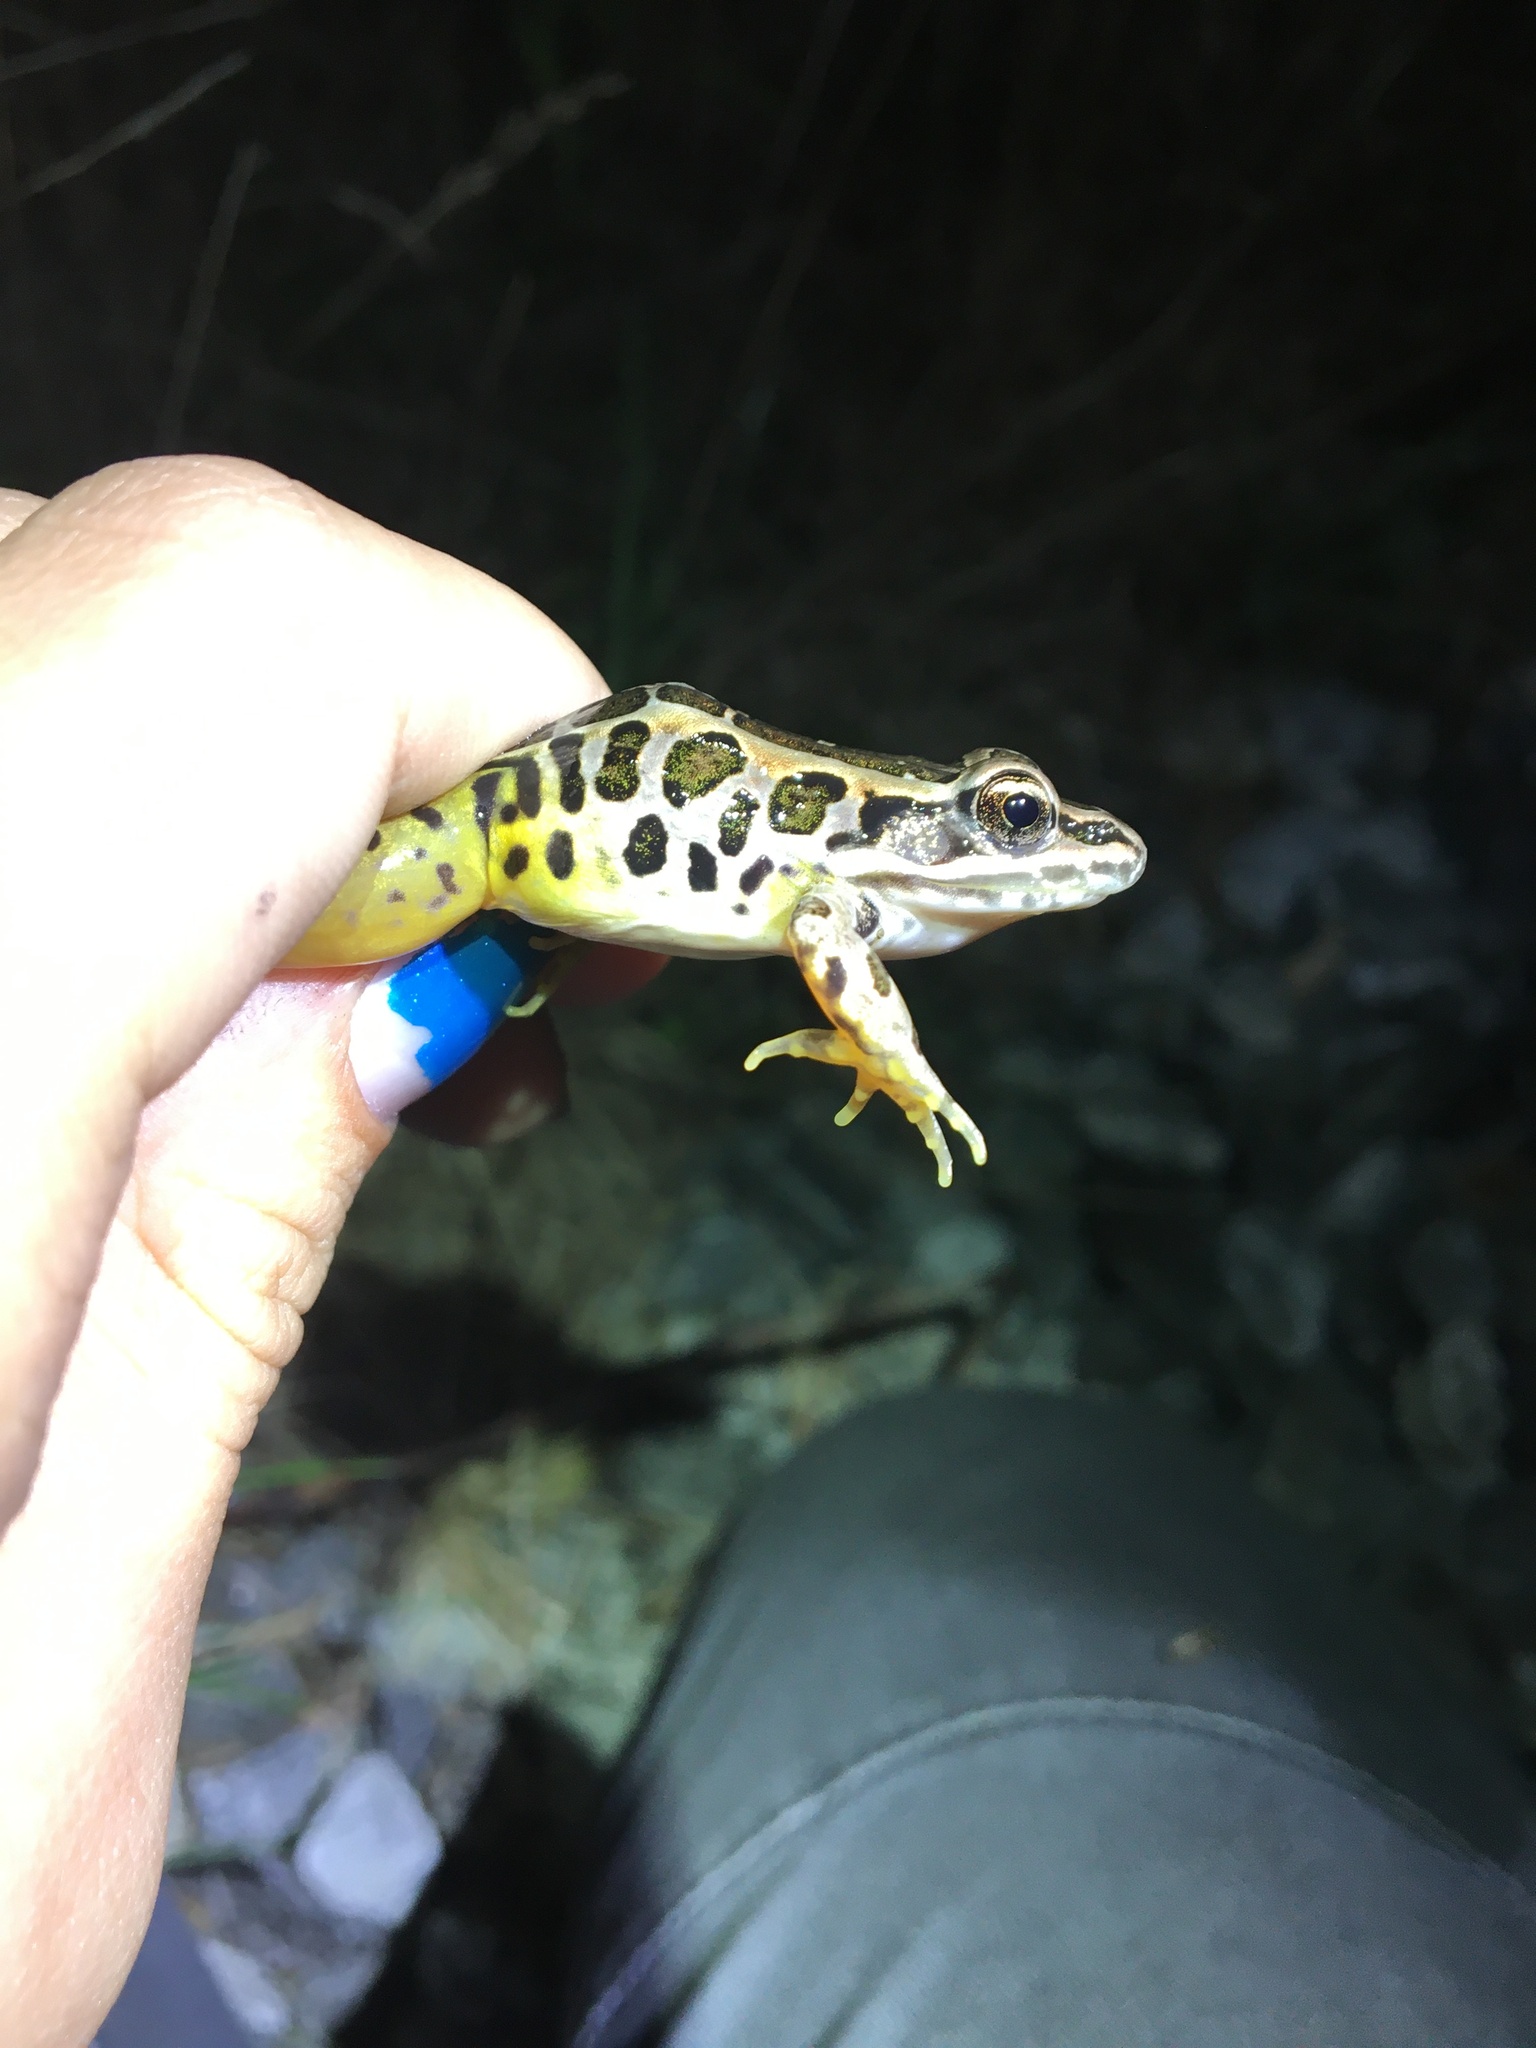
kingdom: Animalia
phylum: Chordata
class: Amphibia
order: Anura
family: Ranidae
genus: Lithobates
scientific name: Lithobates palustris
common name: Pickerel frog
